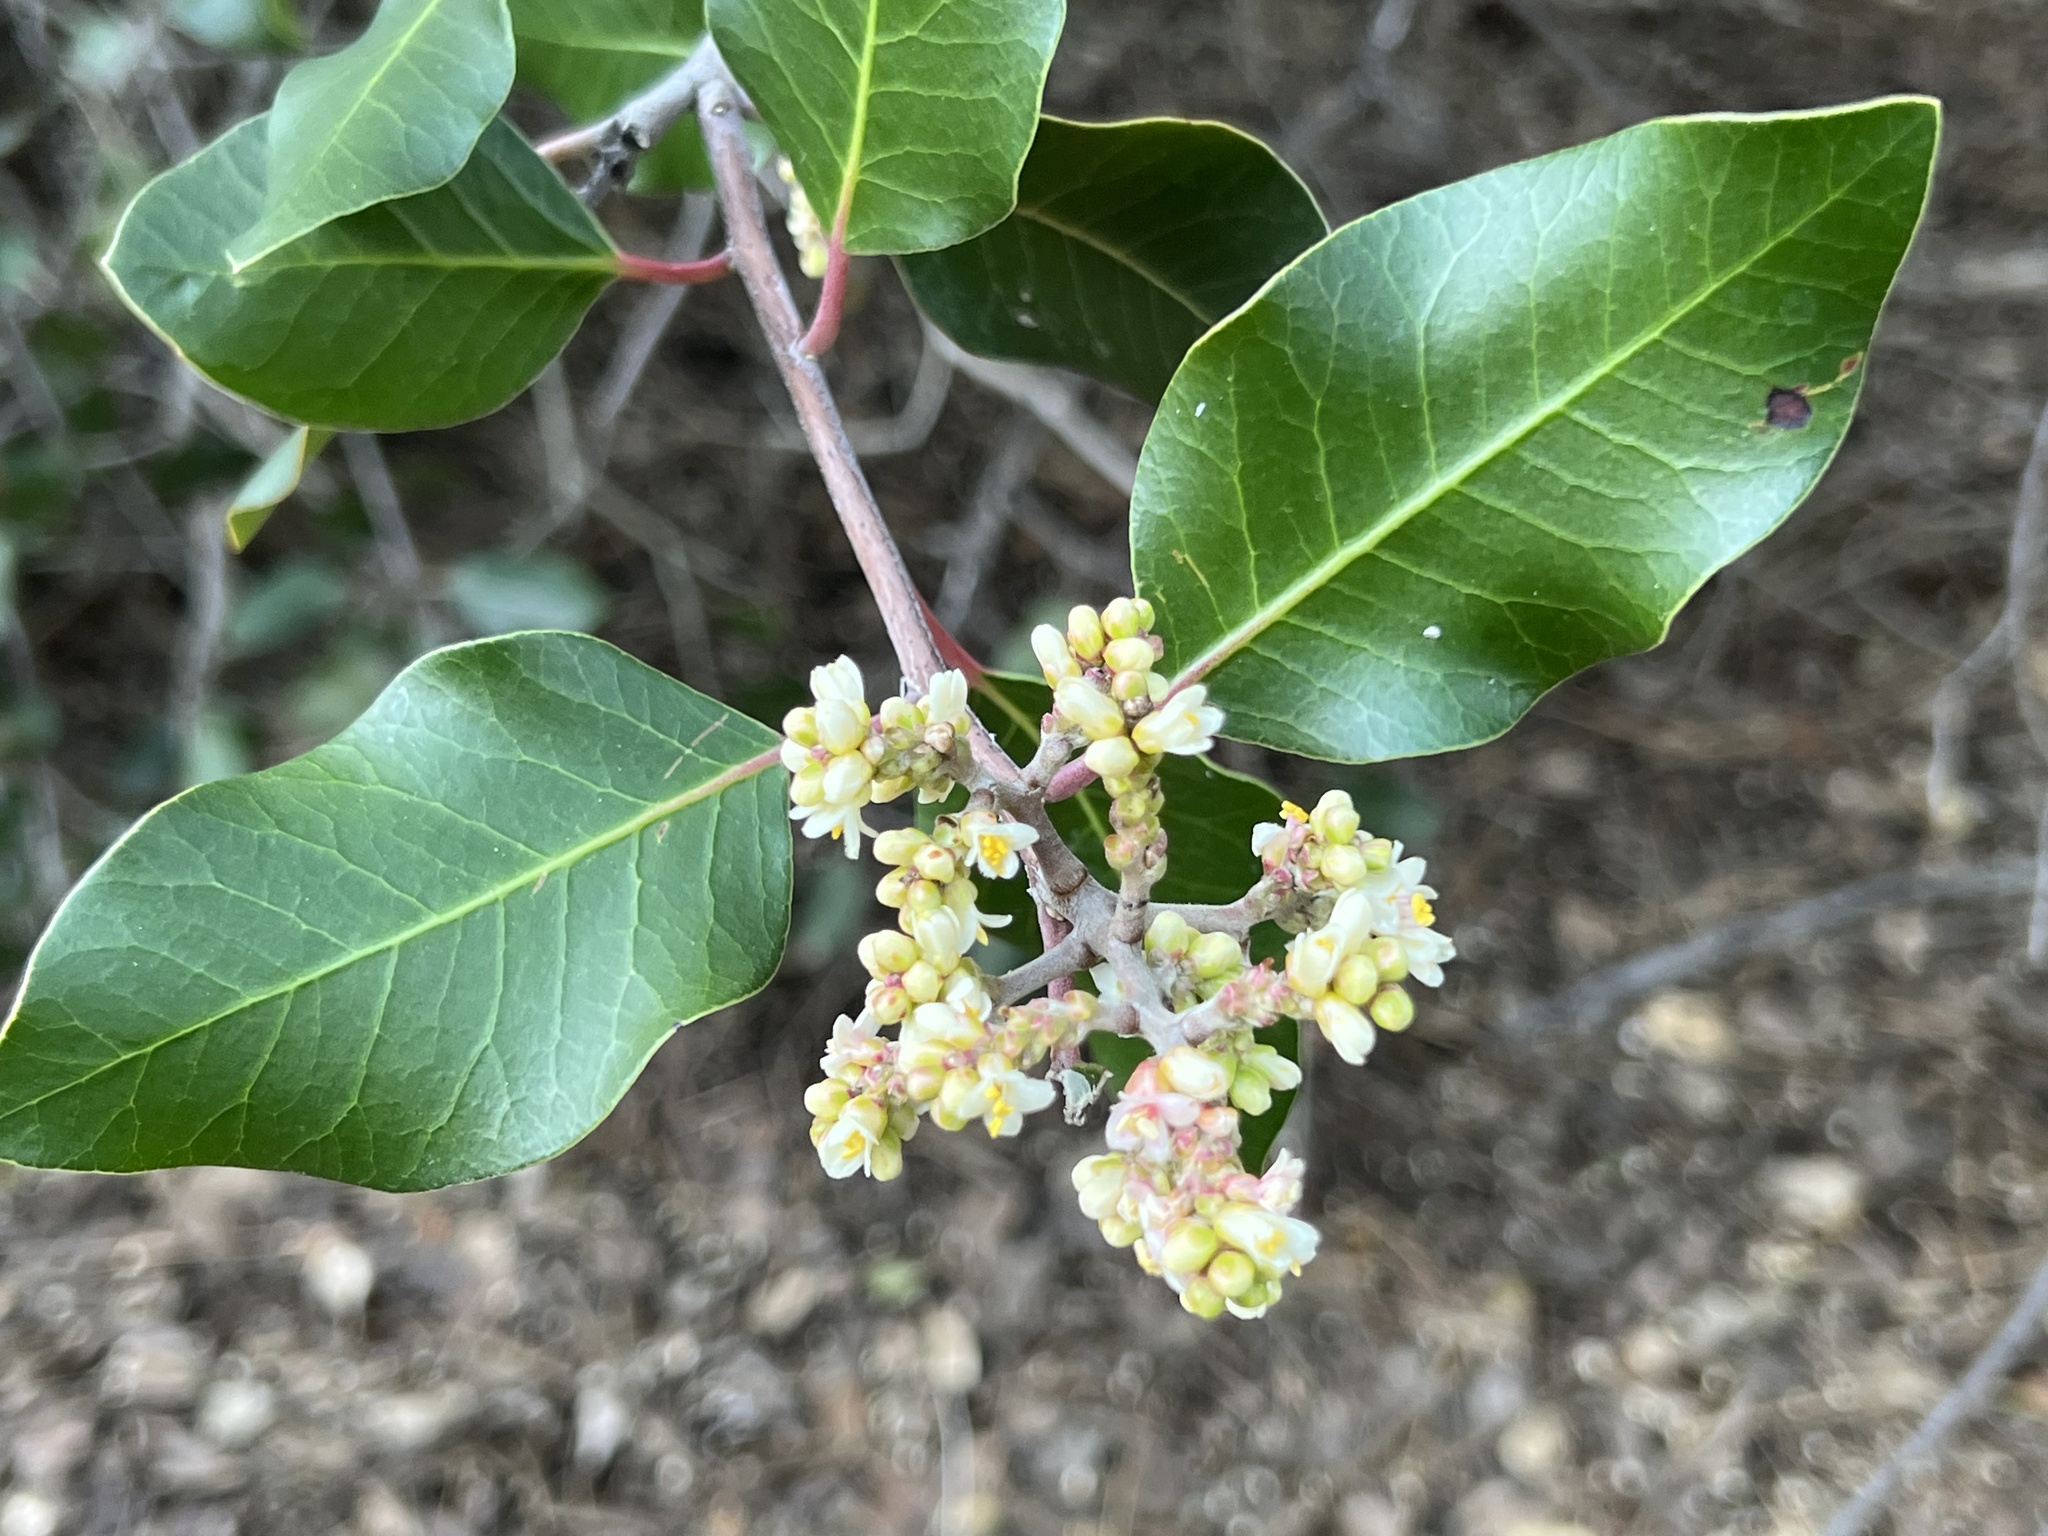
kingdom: Plantae
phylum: Tracheophyta
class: Magnoliopsida
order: Sapindales
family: Anacardiaceae
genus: Rhus
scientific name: Rhus integrifolia
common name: Lemonade sumac
